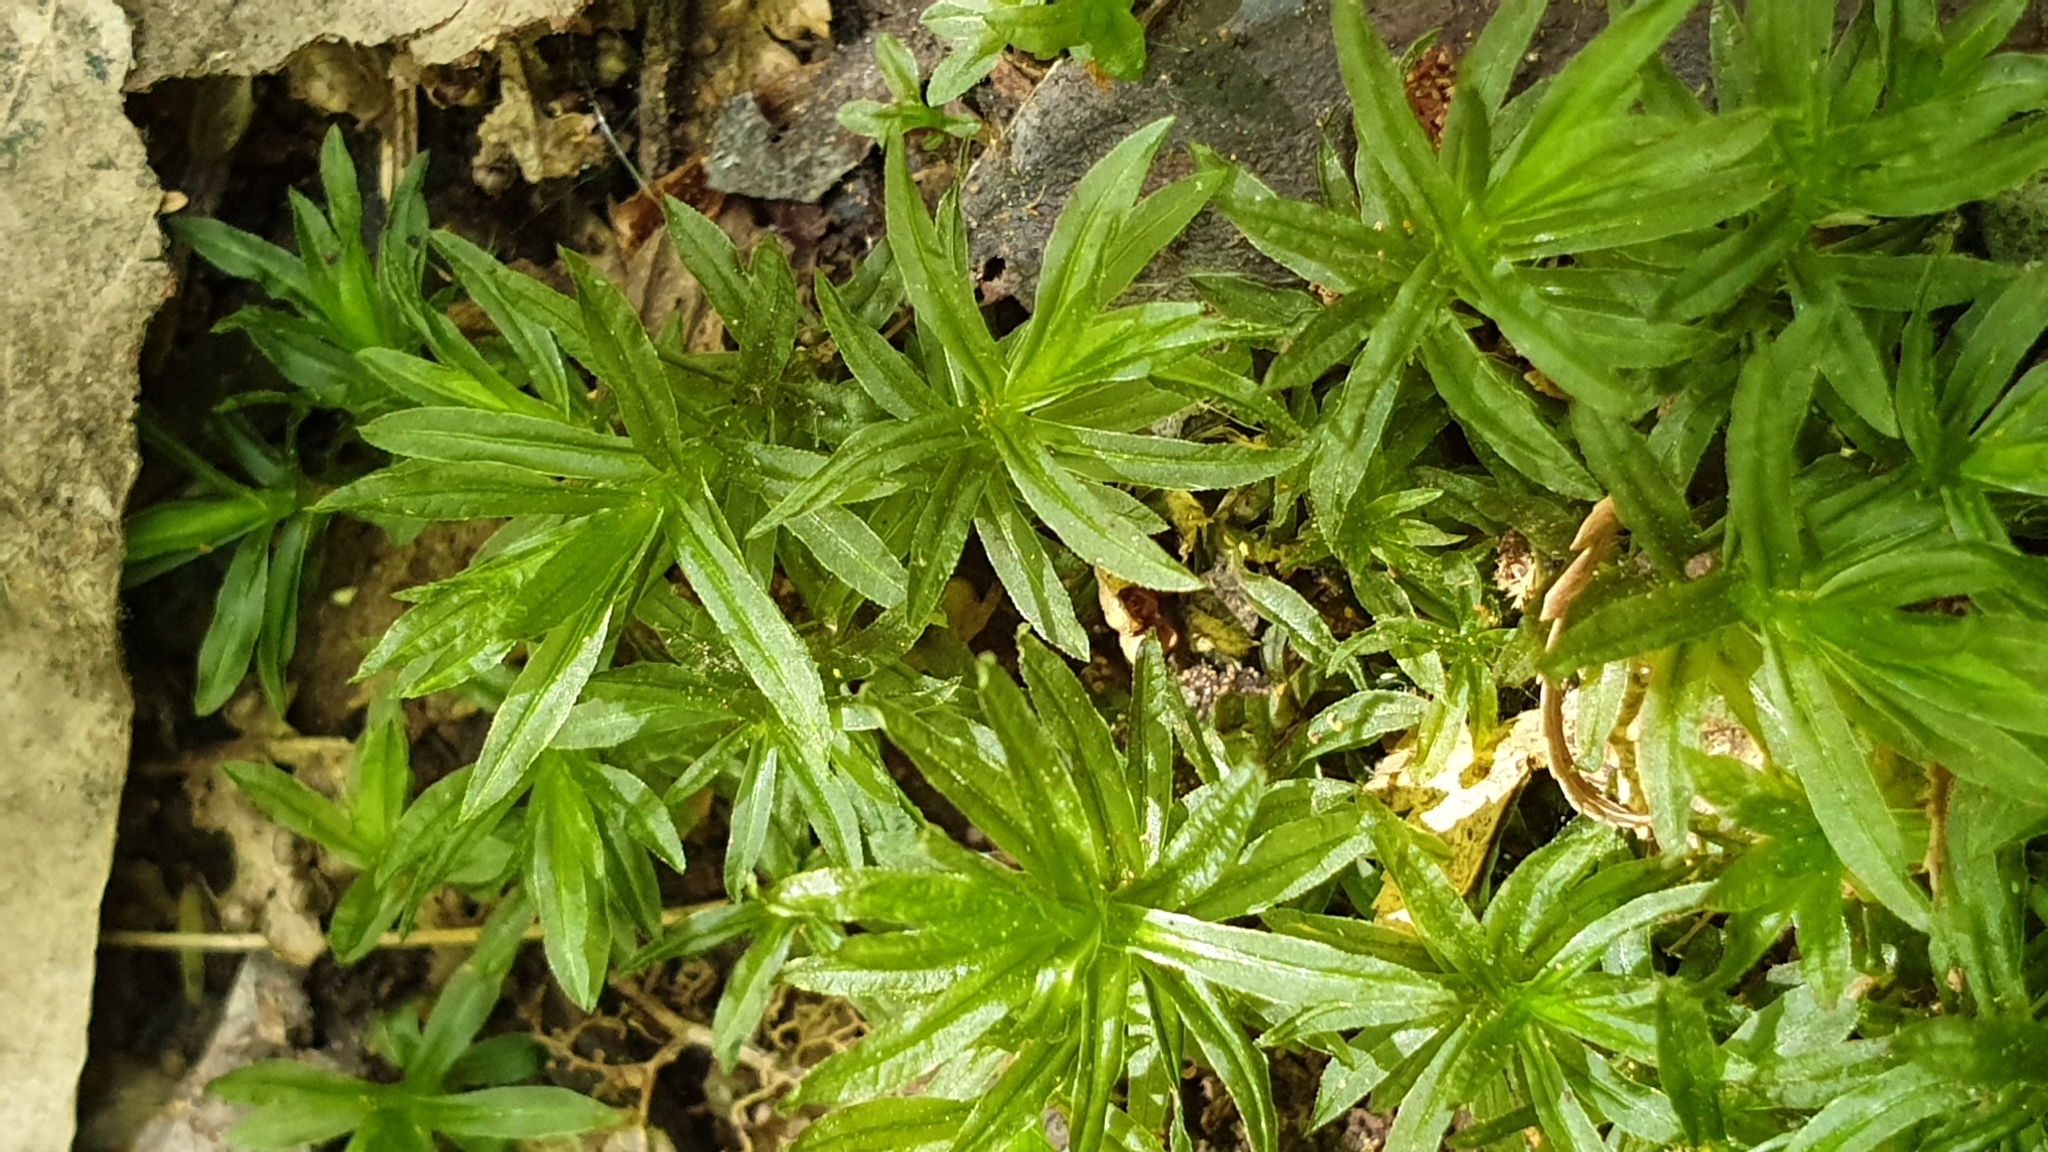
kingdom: Plantae
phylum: Bryophyta
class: Polytrichopsida
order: Polytrichales
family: Polytrichaceae
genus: Atrichum
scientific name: Atrichum androgynum
